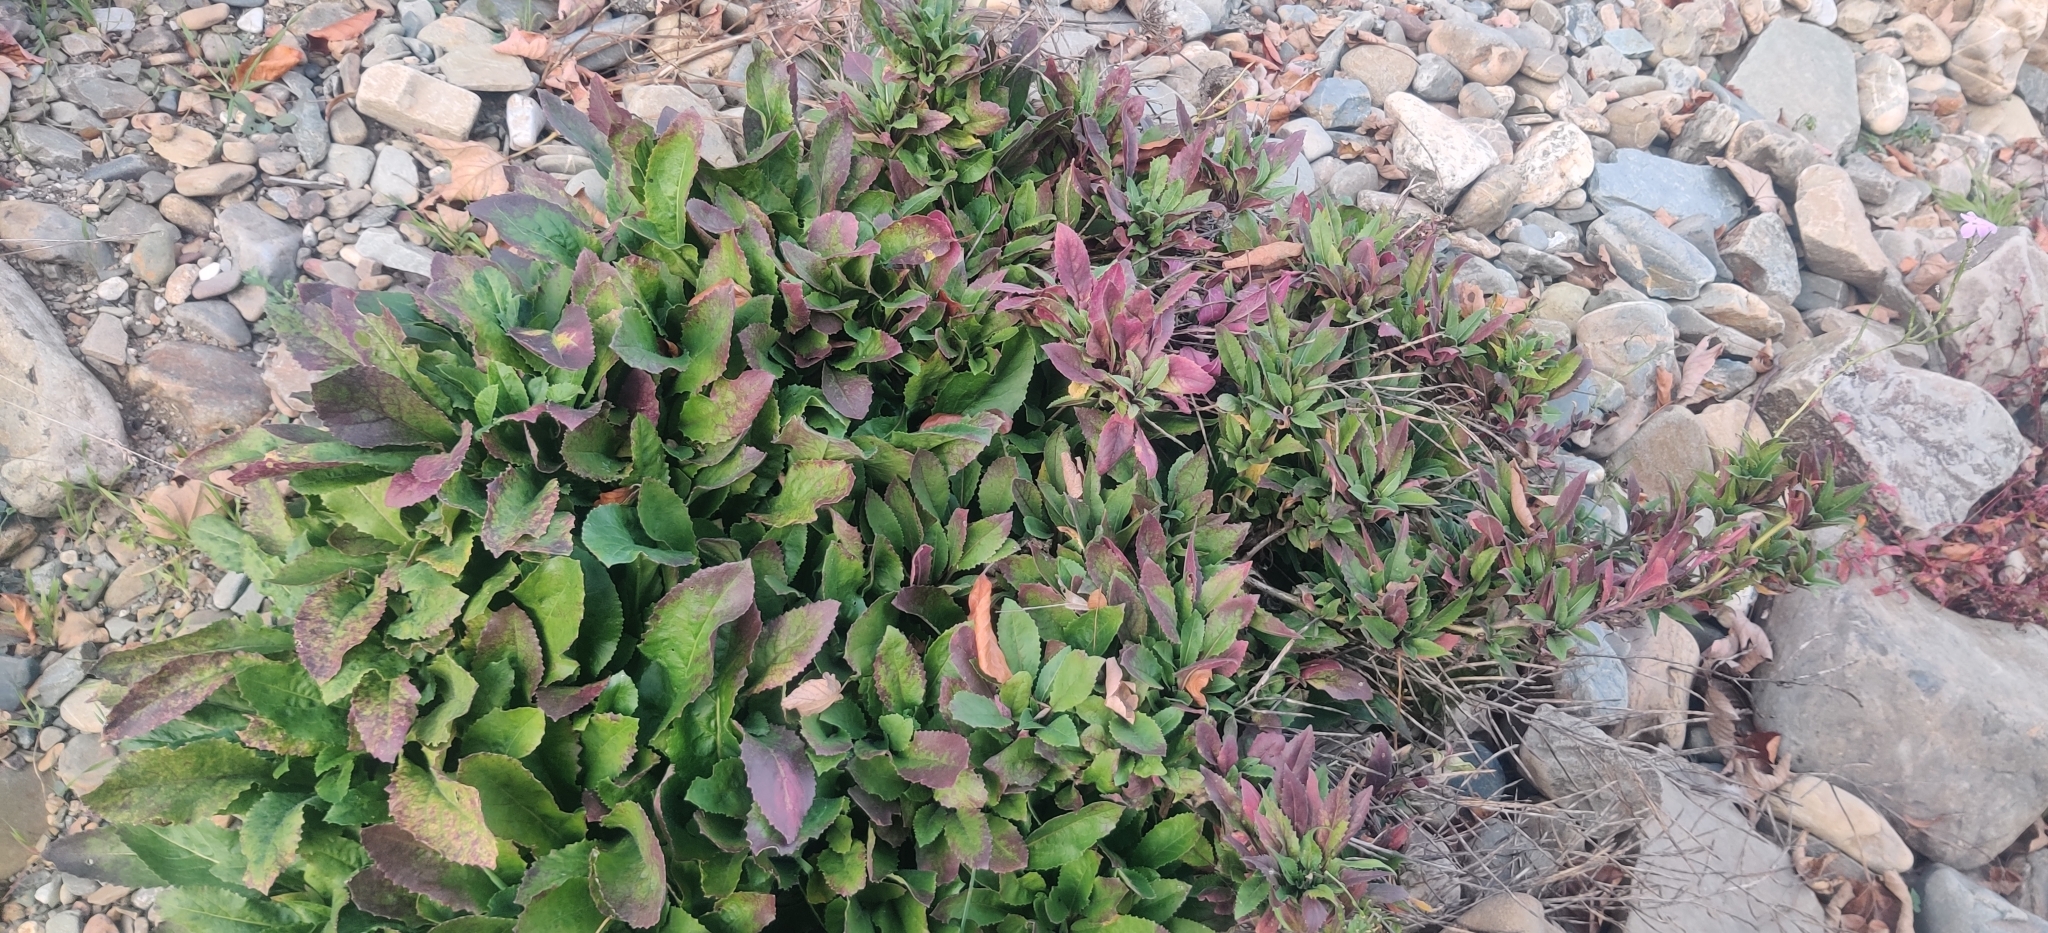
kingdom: Plantae
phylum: Tracheophyta
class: Magnoliopsida
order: Brassicales
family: Brassicaceae
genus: Hesperis
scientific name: Hesperis matronalis
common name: Dame's-violet
